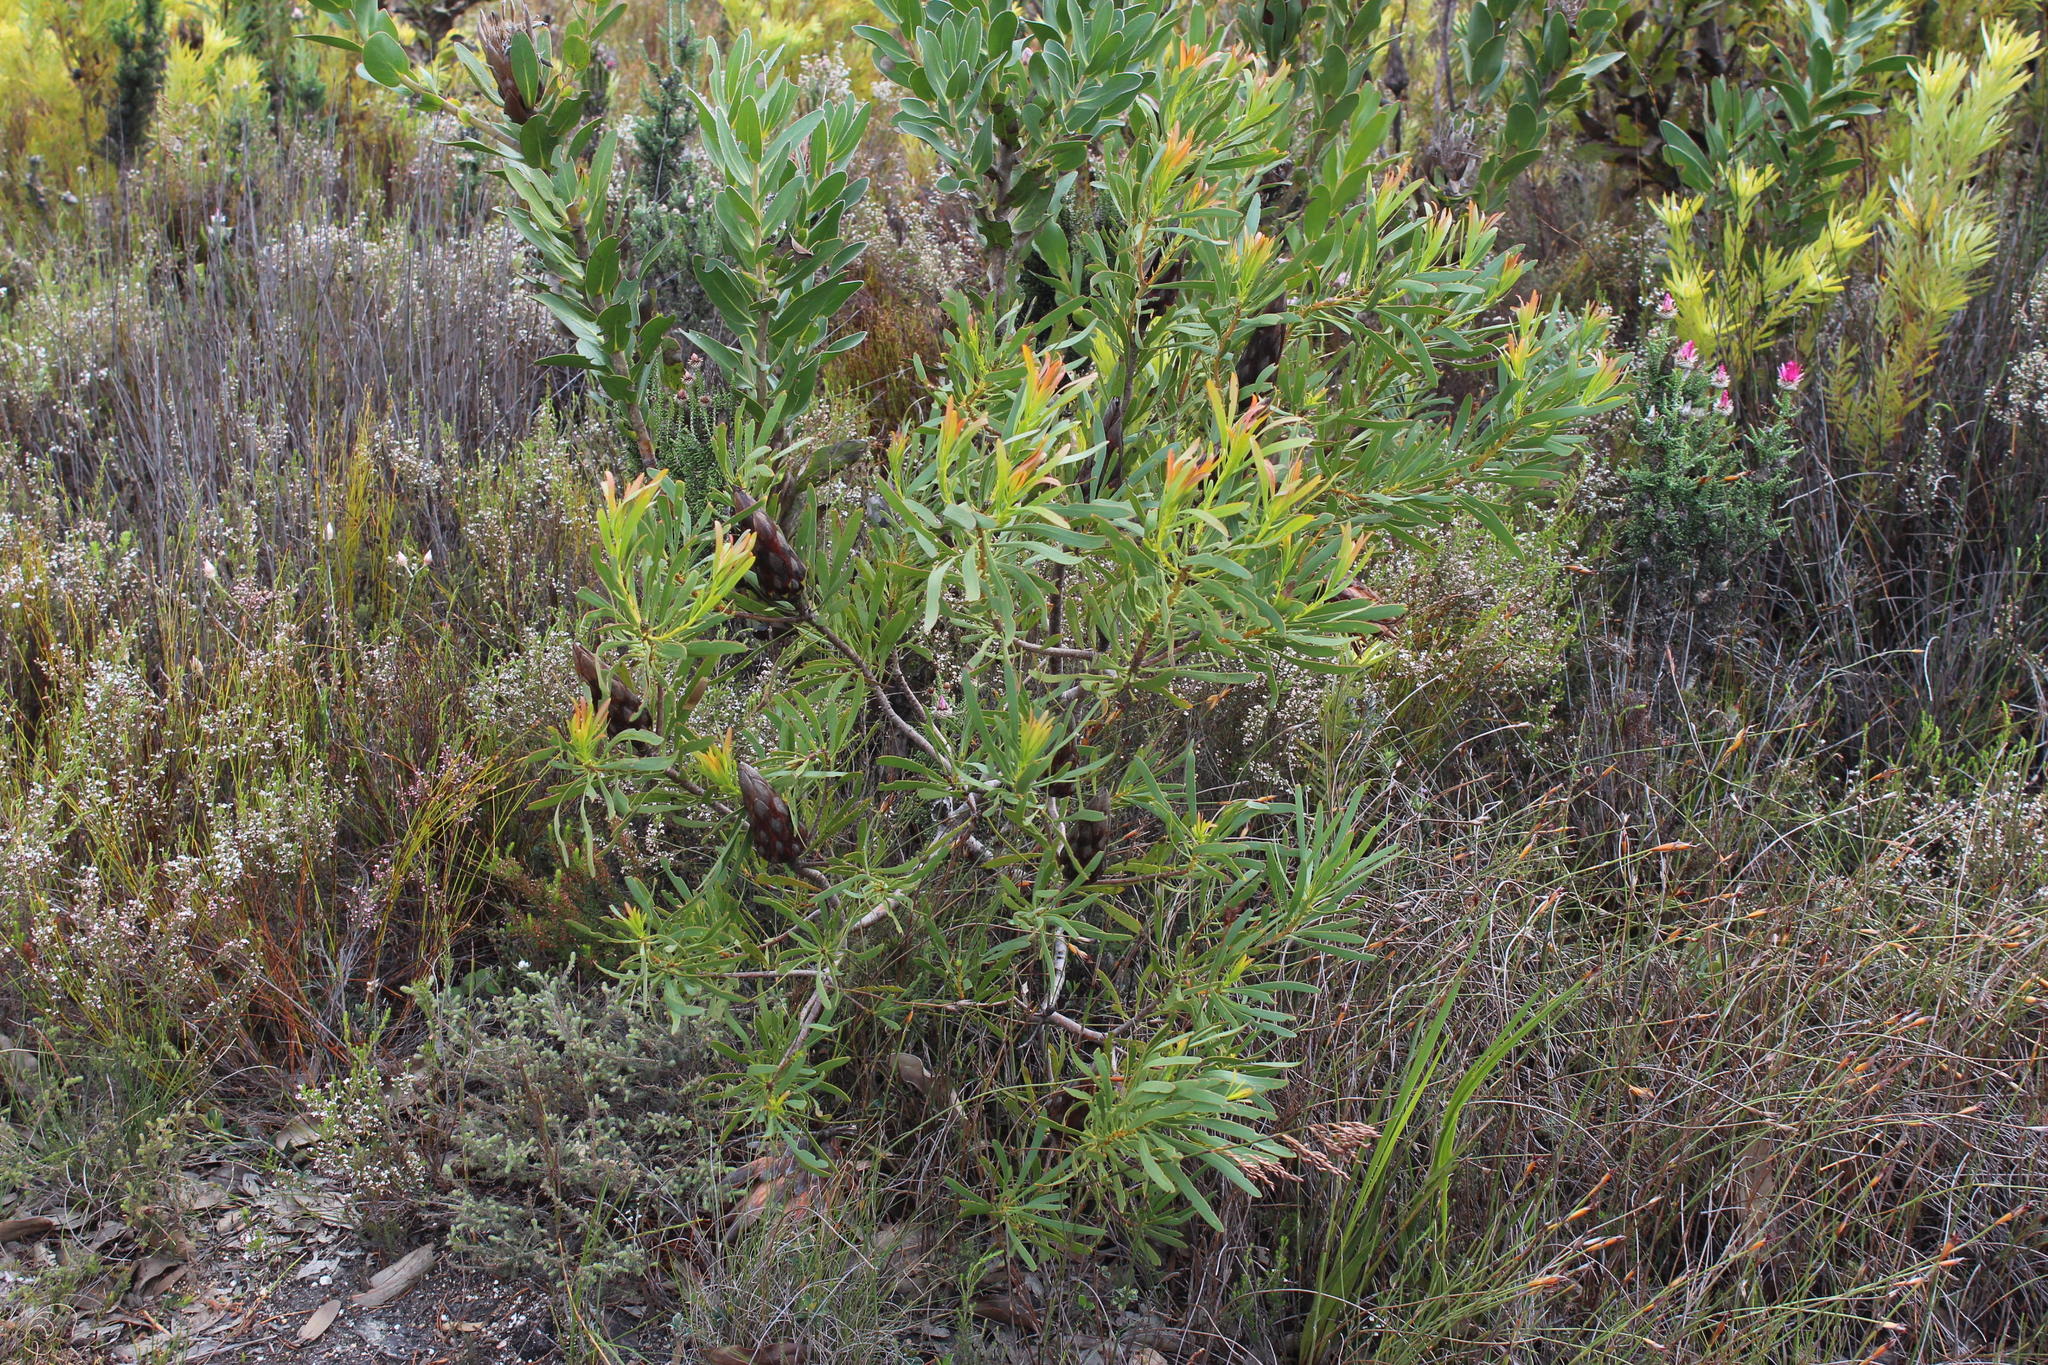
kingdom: Plantae
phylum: Tracheophyta
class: Magnoliopsida
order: Proteales
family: Proteaceae
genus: Protea
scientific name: Protea repens
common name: Sugarbush
